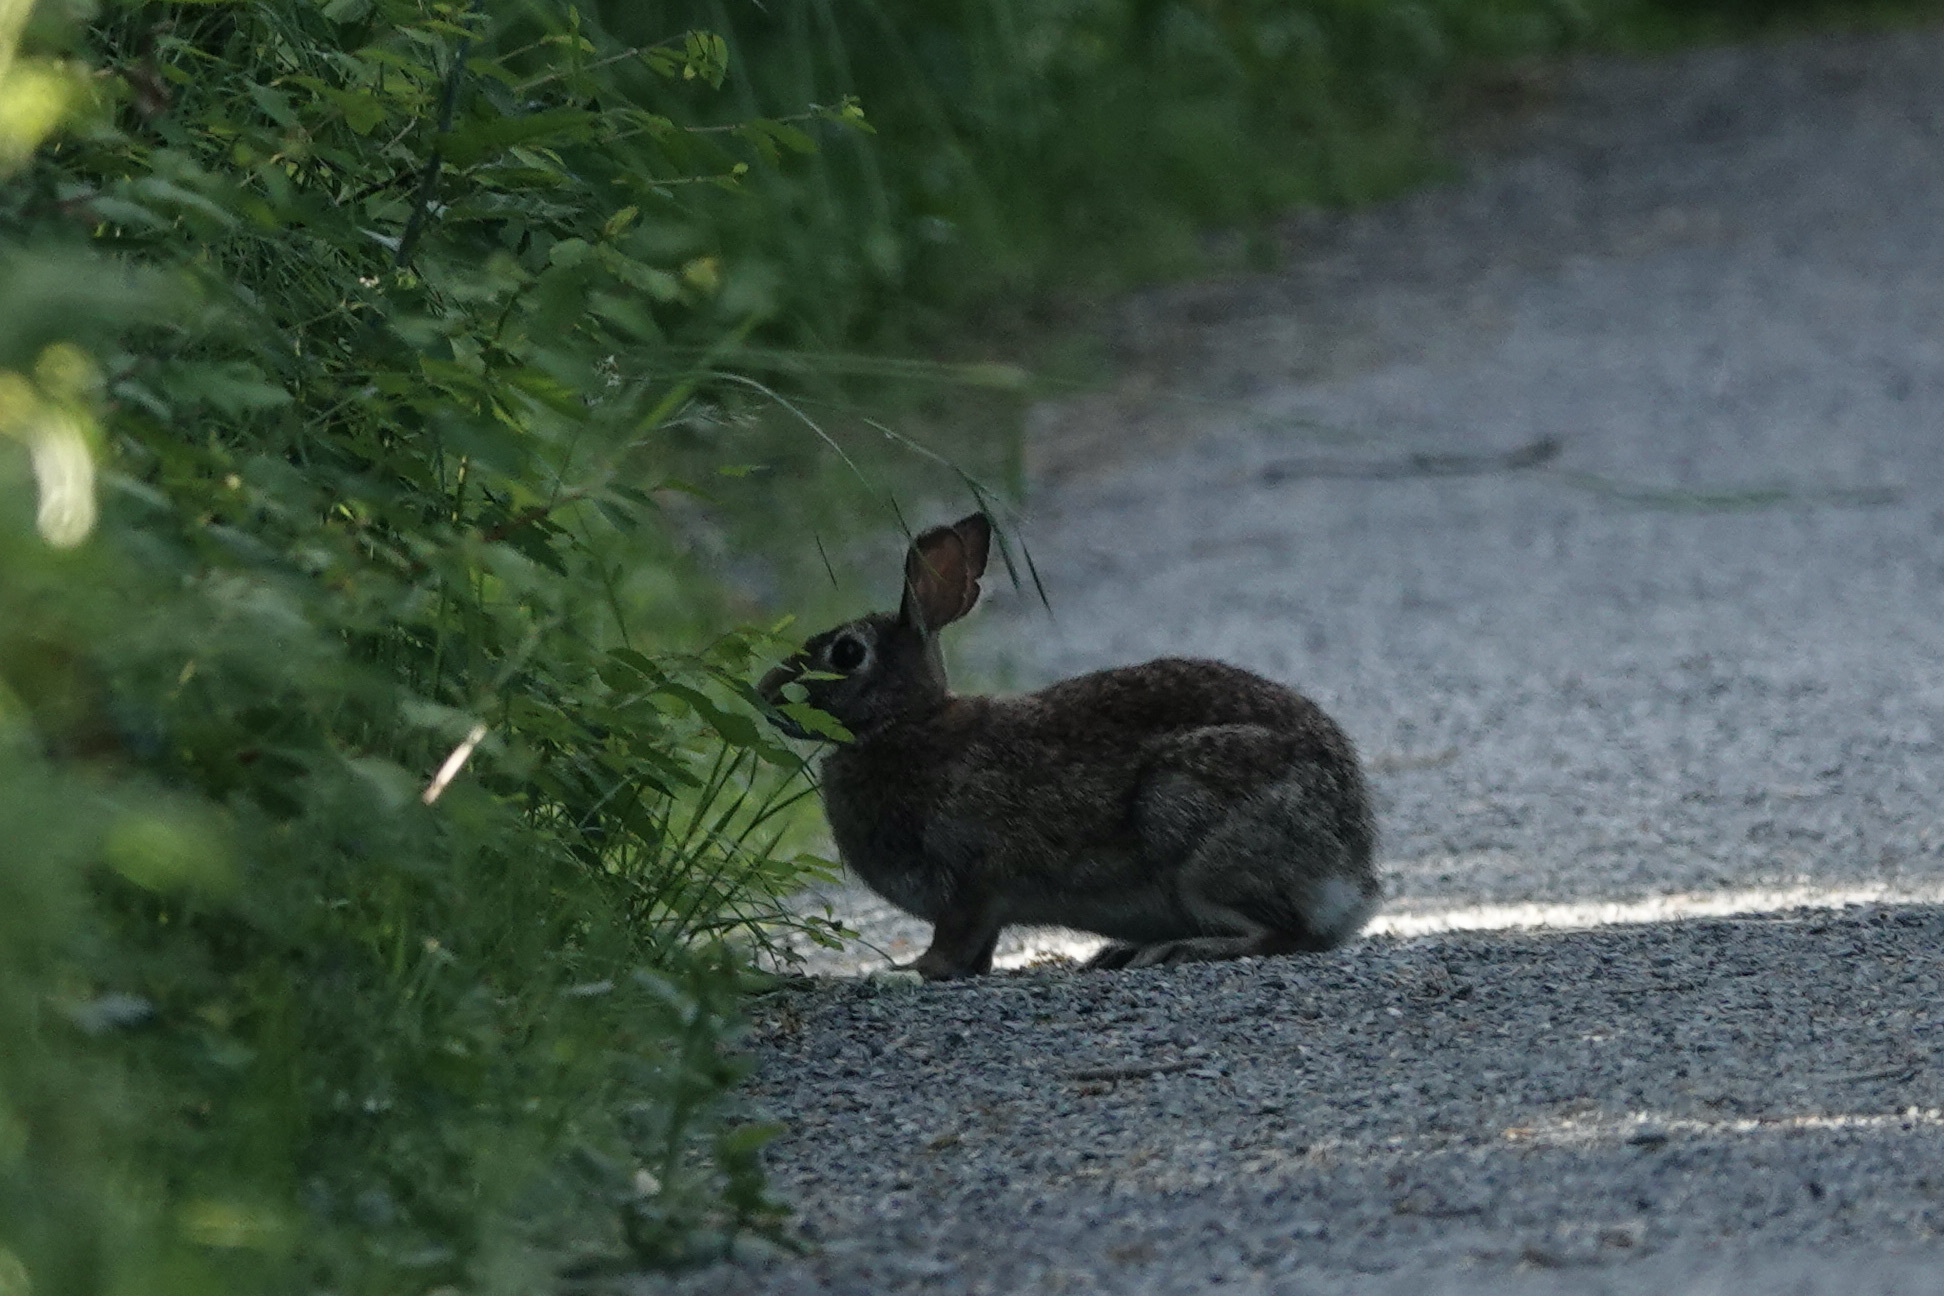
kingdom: Animalia
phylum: Chordata
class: Mammalia
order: Lagomorpha
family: Leporidae
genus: Sylvilagus
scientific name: Sylvilagus floridanus
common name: Eastern cottontail
